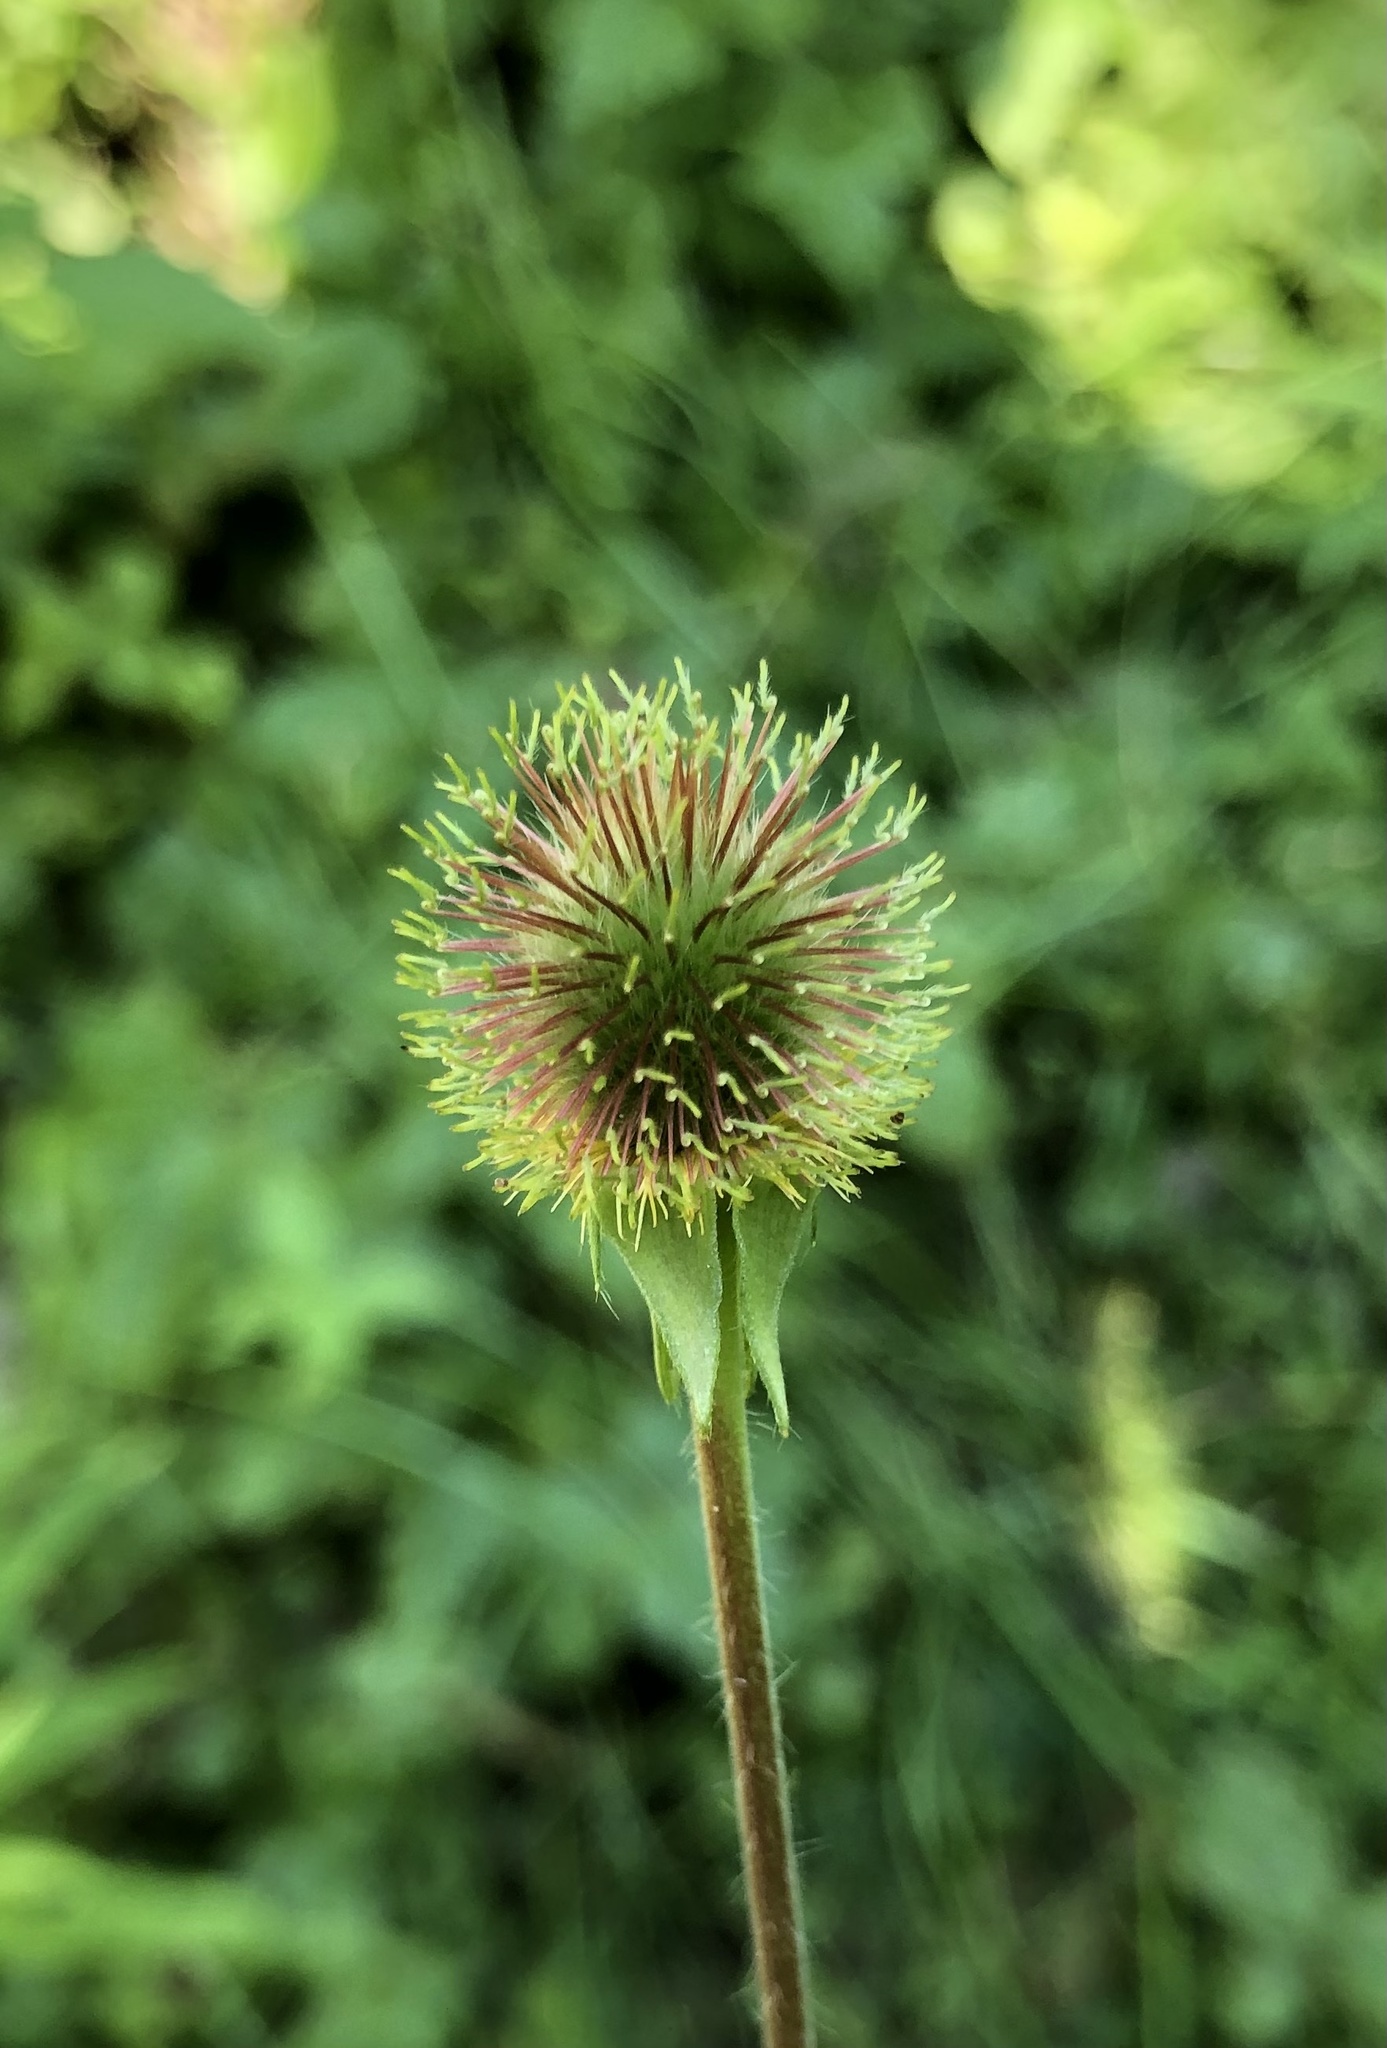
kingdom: Plantae
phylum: Tracheophyta
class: Magnoliopsida
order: Rosales
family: Rosaceae
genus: Geum
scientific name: Geum aleppicum
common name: Yellow avens
